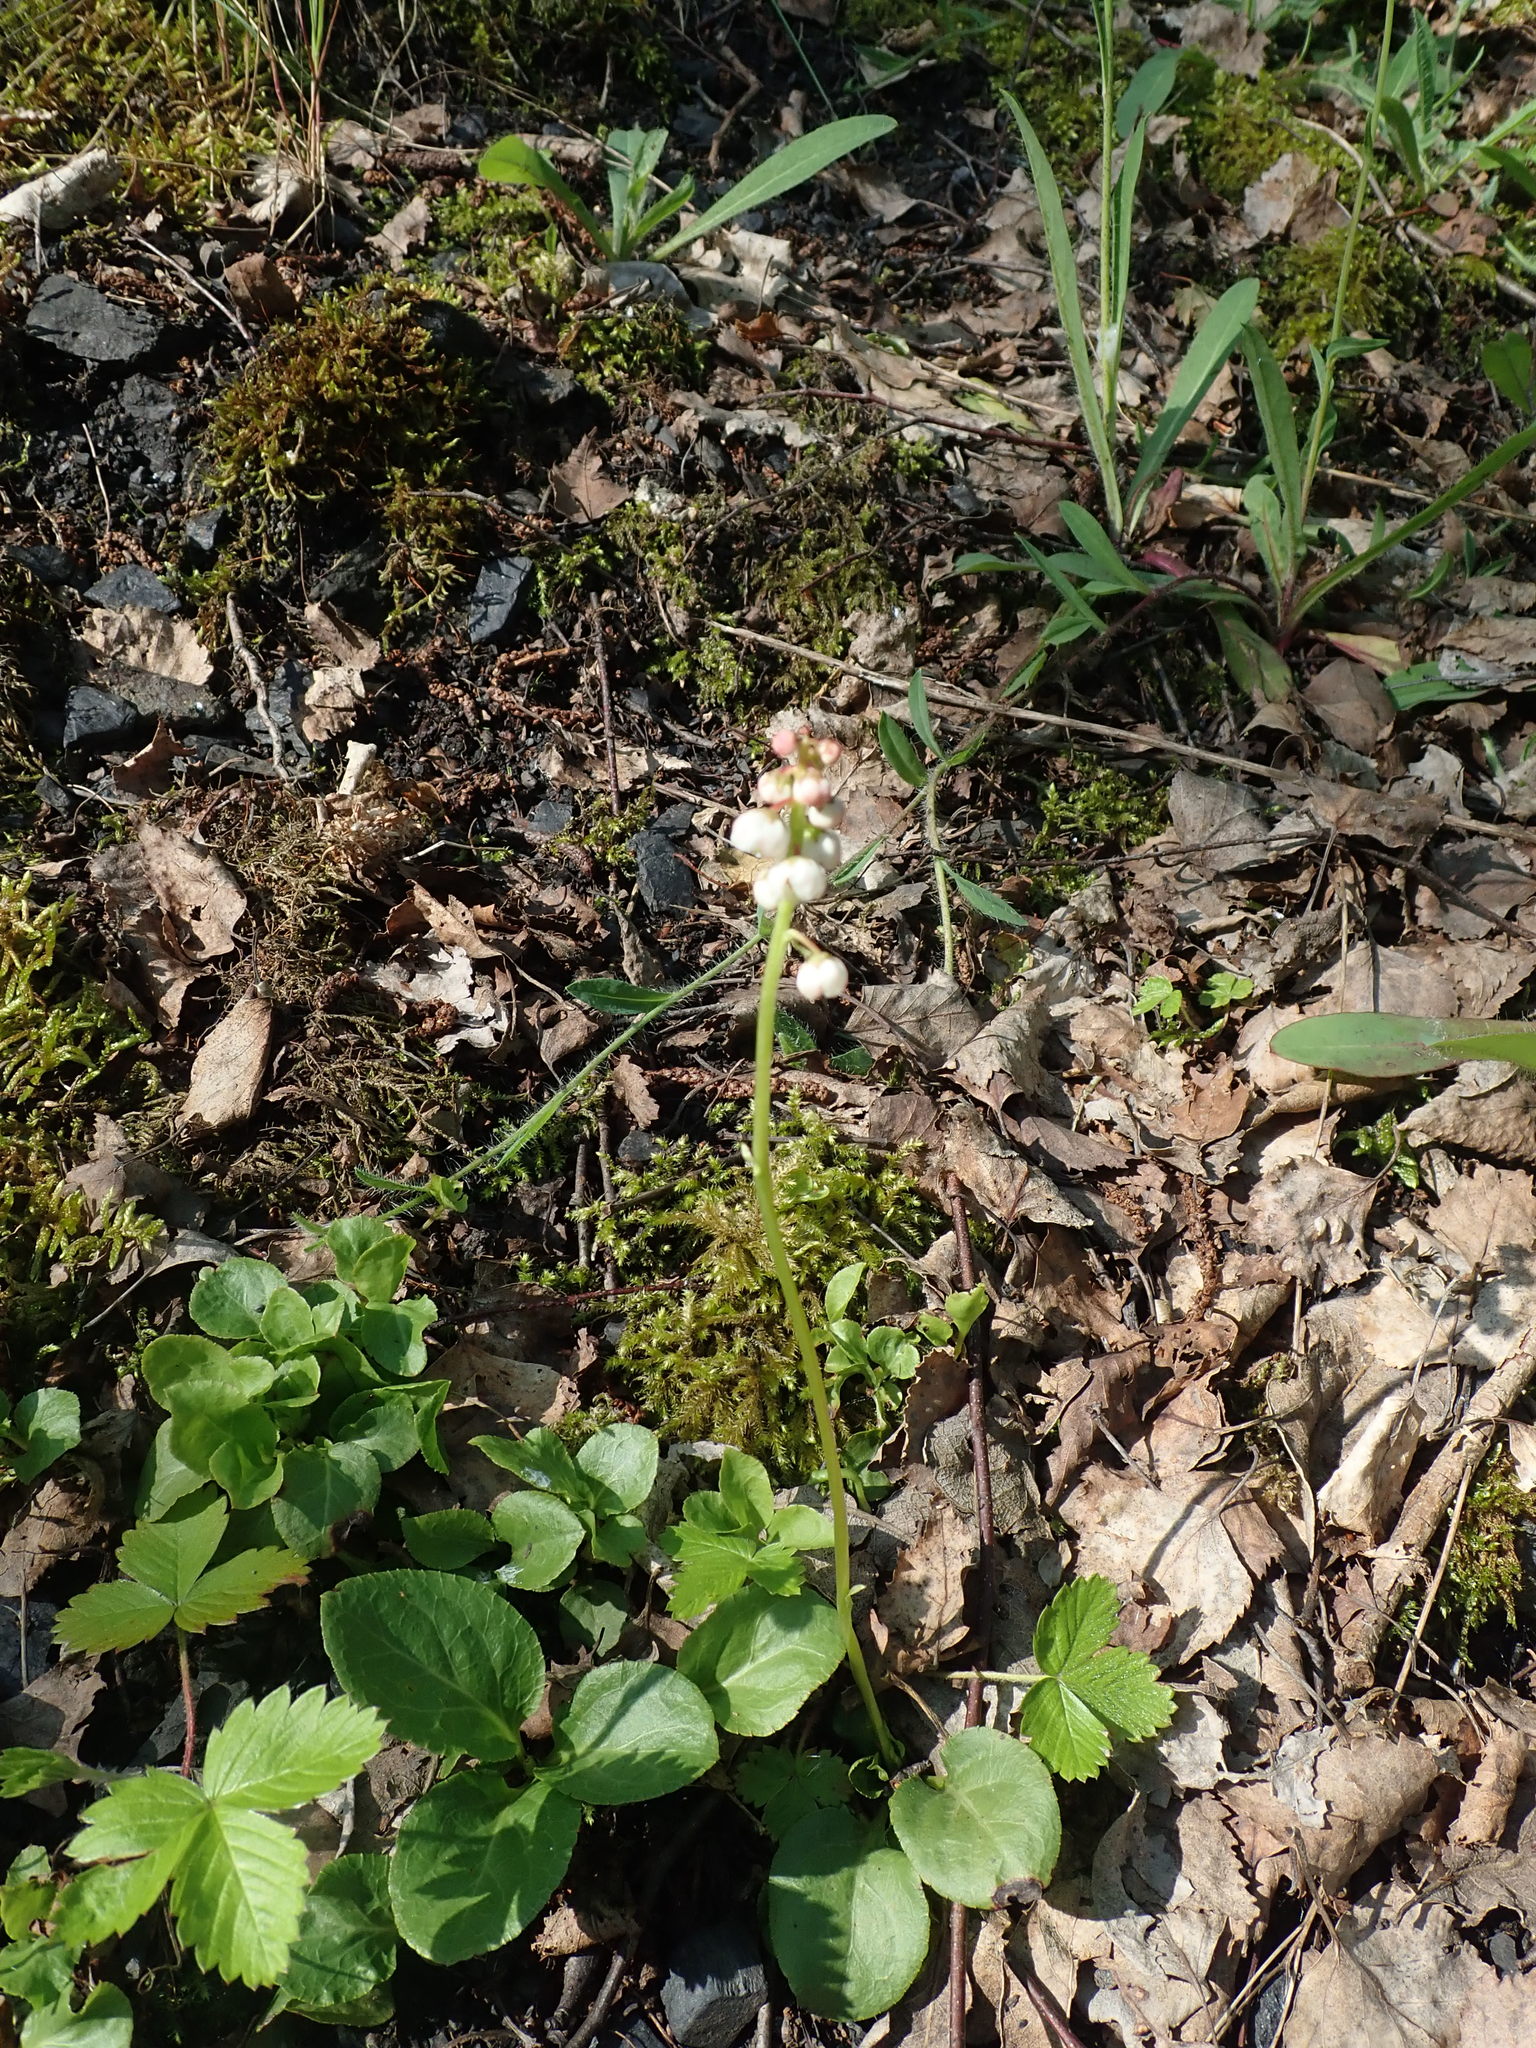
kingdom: Plantae
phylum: Tracheophyta
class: Magnoliopsida
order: Ericales
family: Ericaceae
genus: Pyrola
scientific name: Pyrola minor
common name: Common wintergreen
